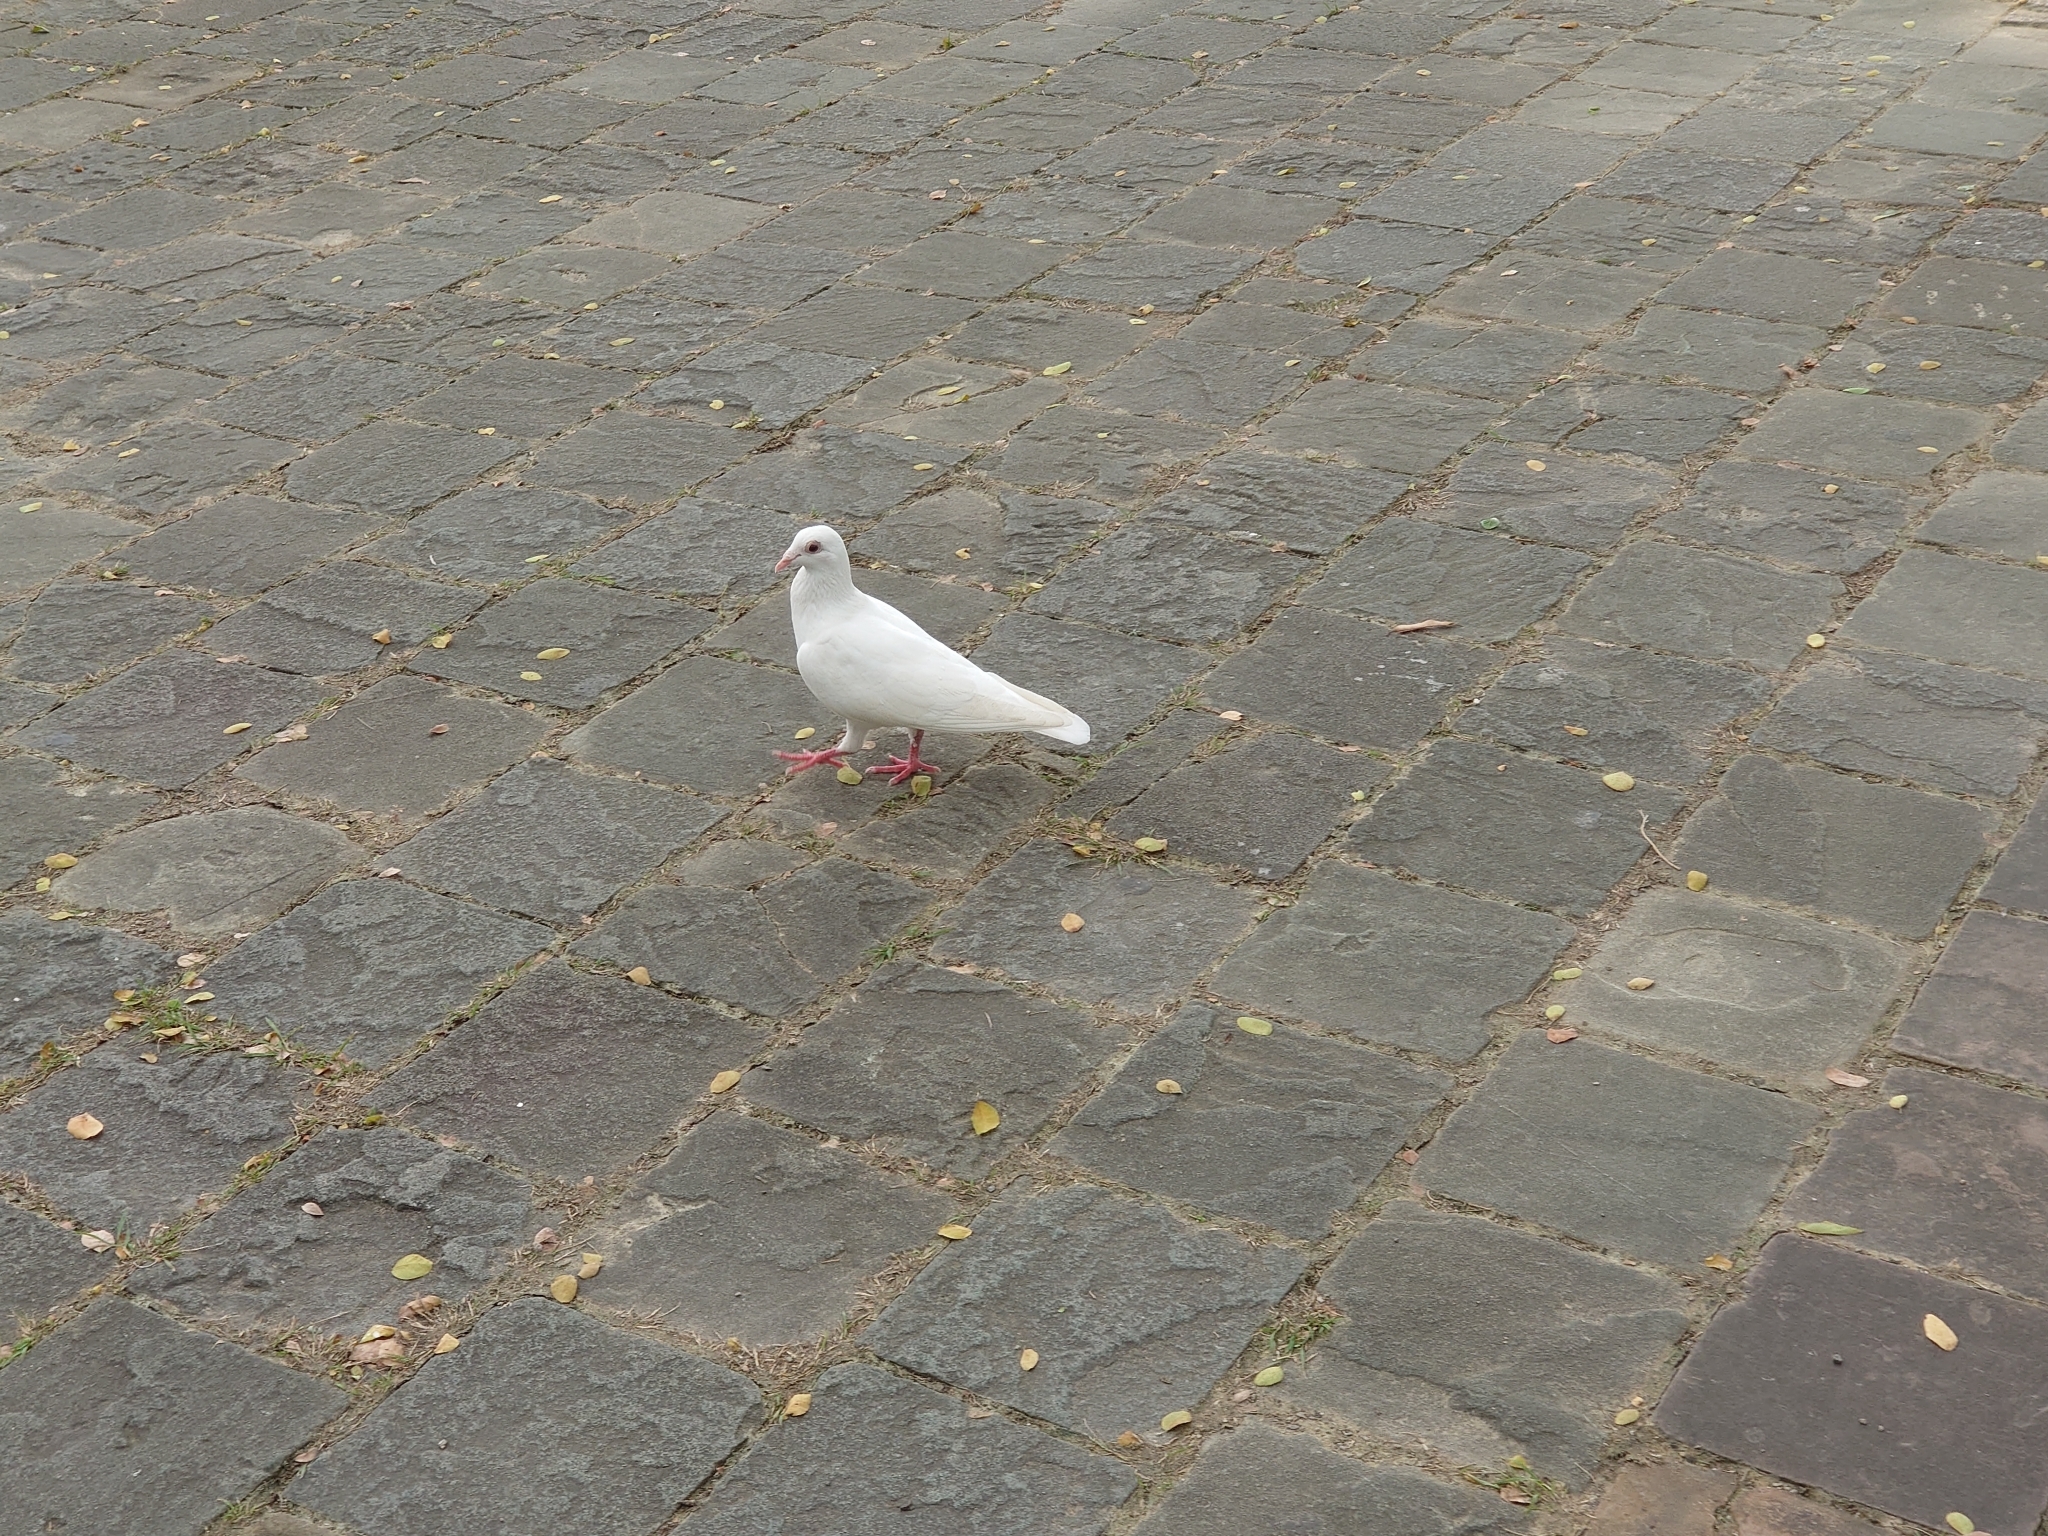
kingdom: Animalia
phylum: Chordata
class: Aves
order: Columbiformes
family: Columbidae
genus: Columba
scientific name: Columba livia
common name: Rock pigeon
